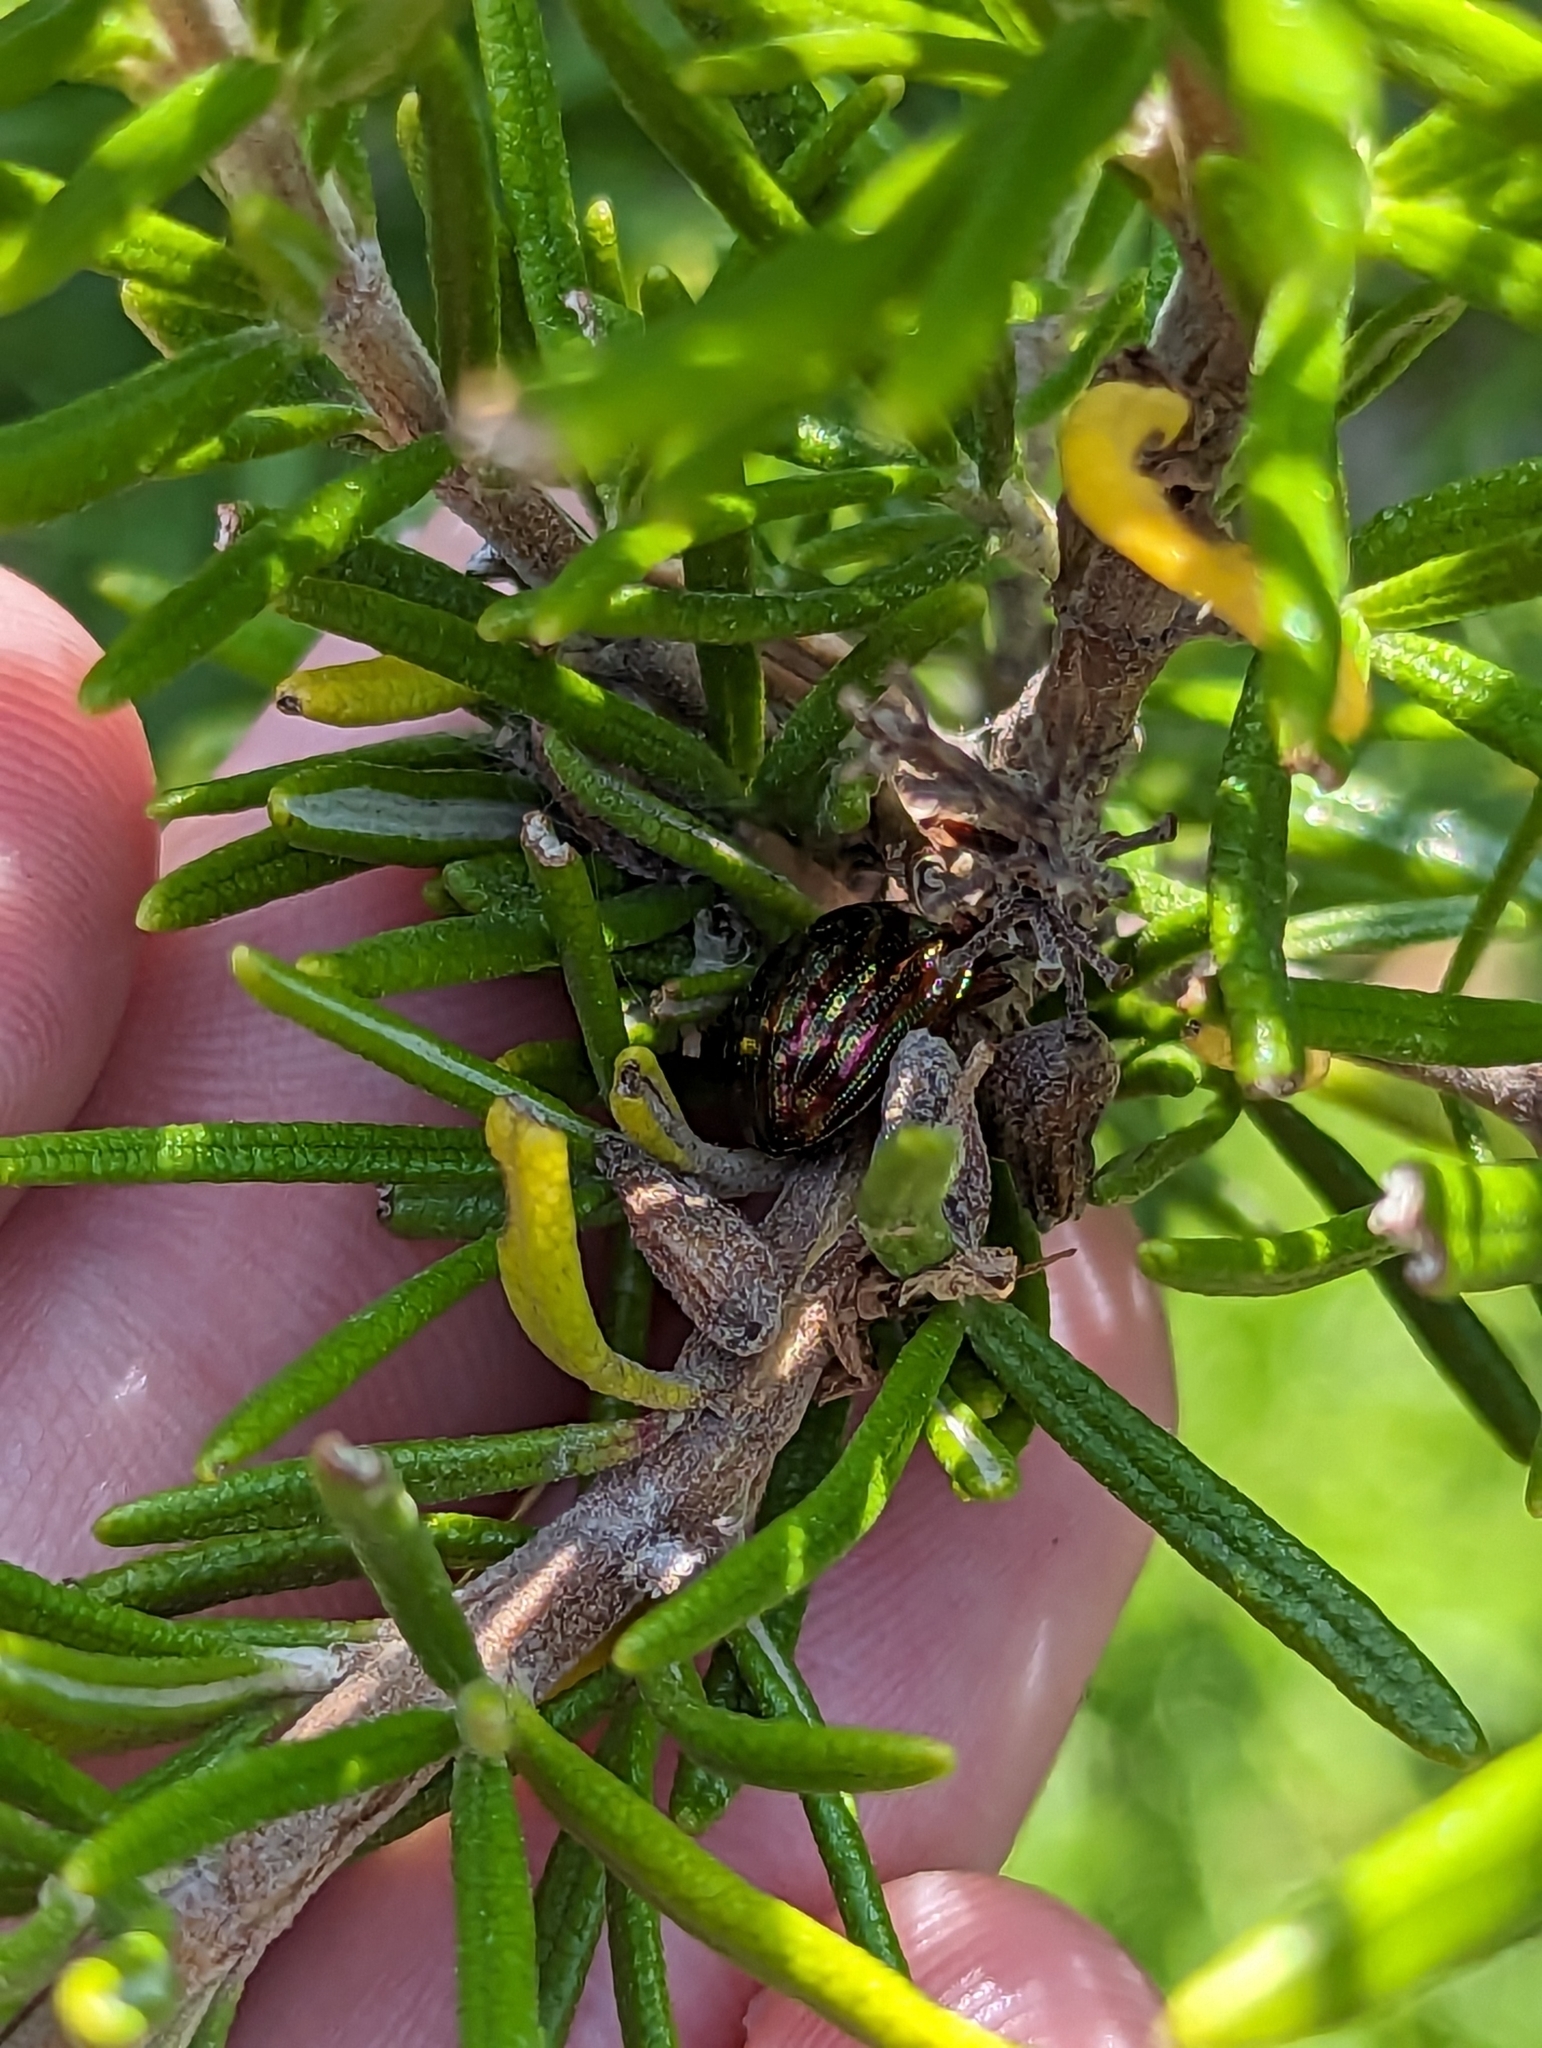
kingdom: Animalia
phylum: Arthropoda
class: Insecta
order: Coleoptera
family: Chrysomelidae
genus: Chrysolina
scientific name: Chrysolina americana
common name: Rosemary beetle
